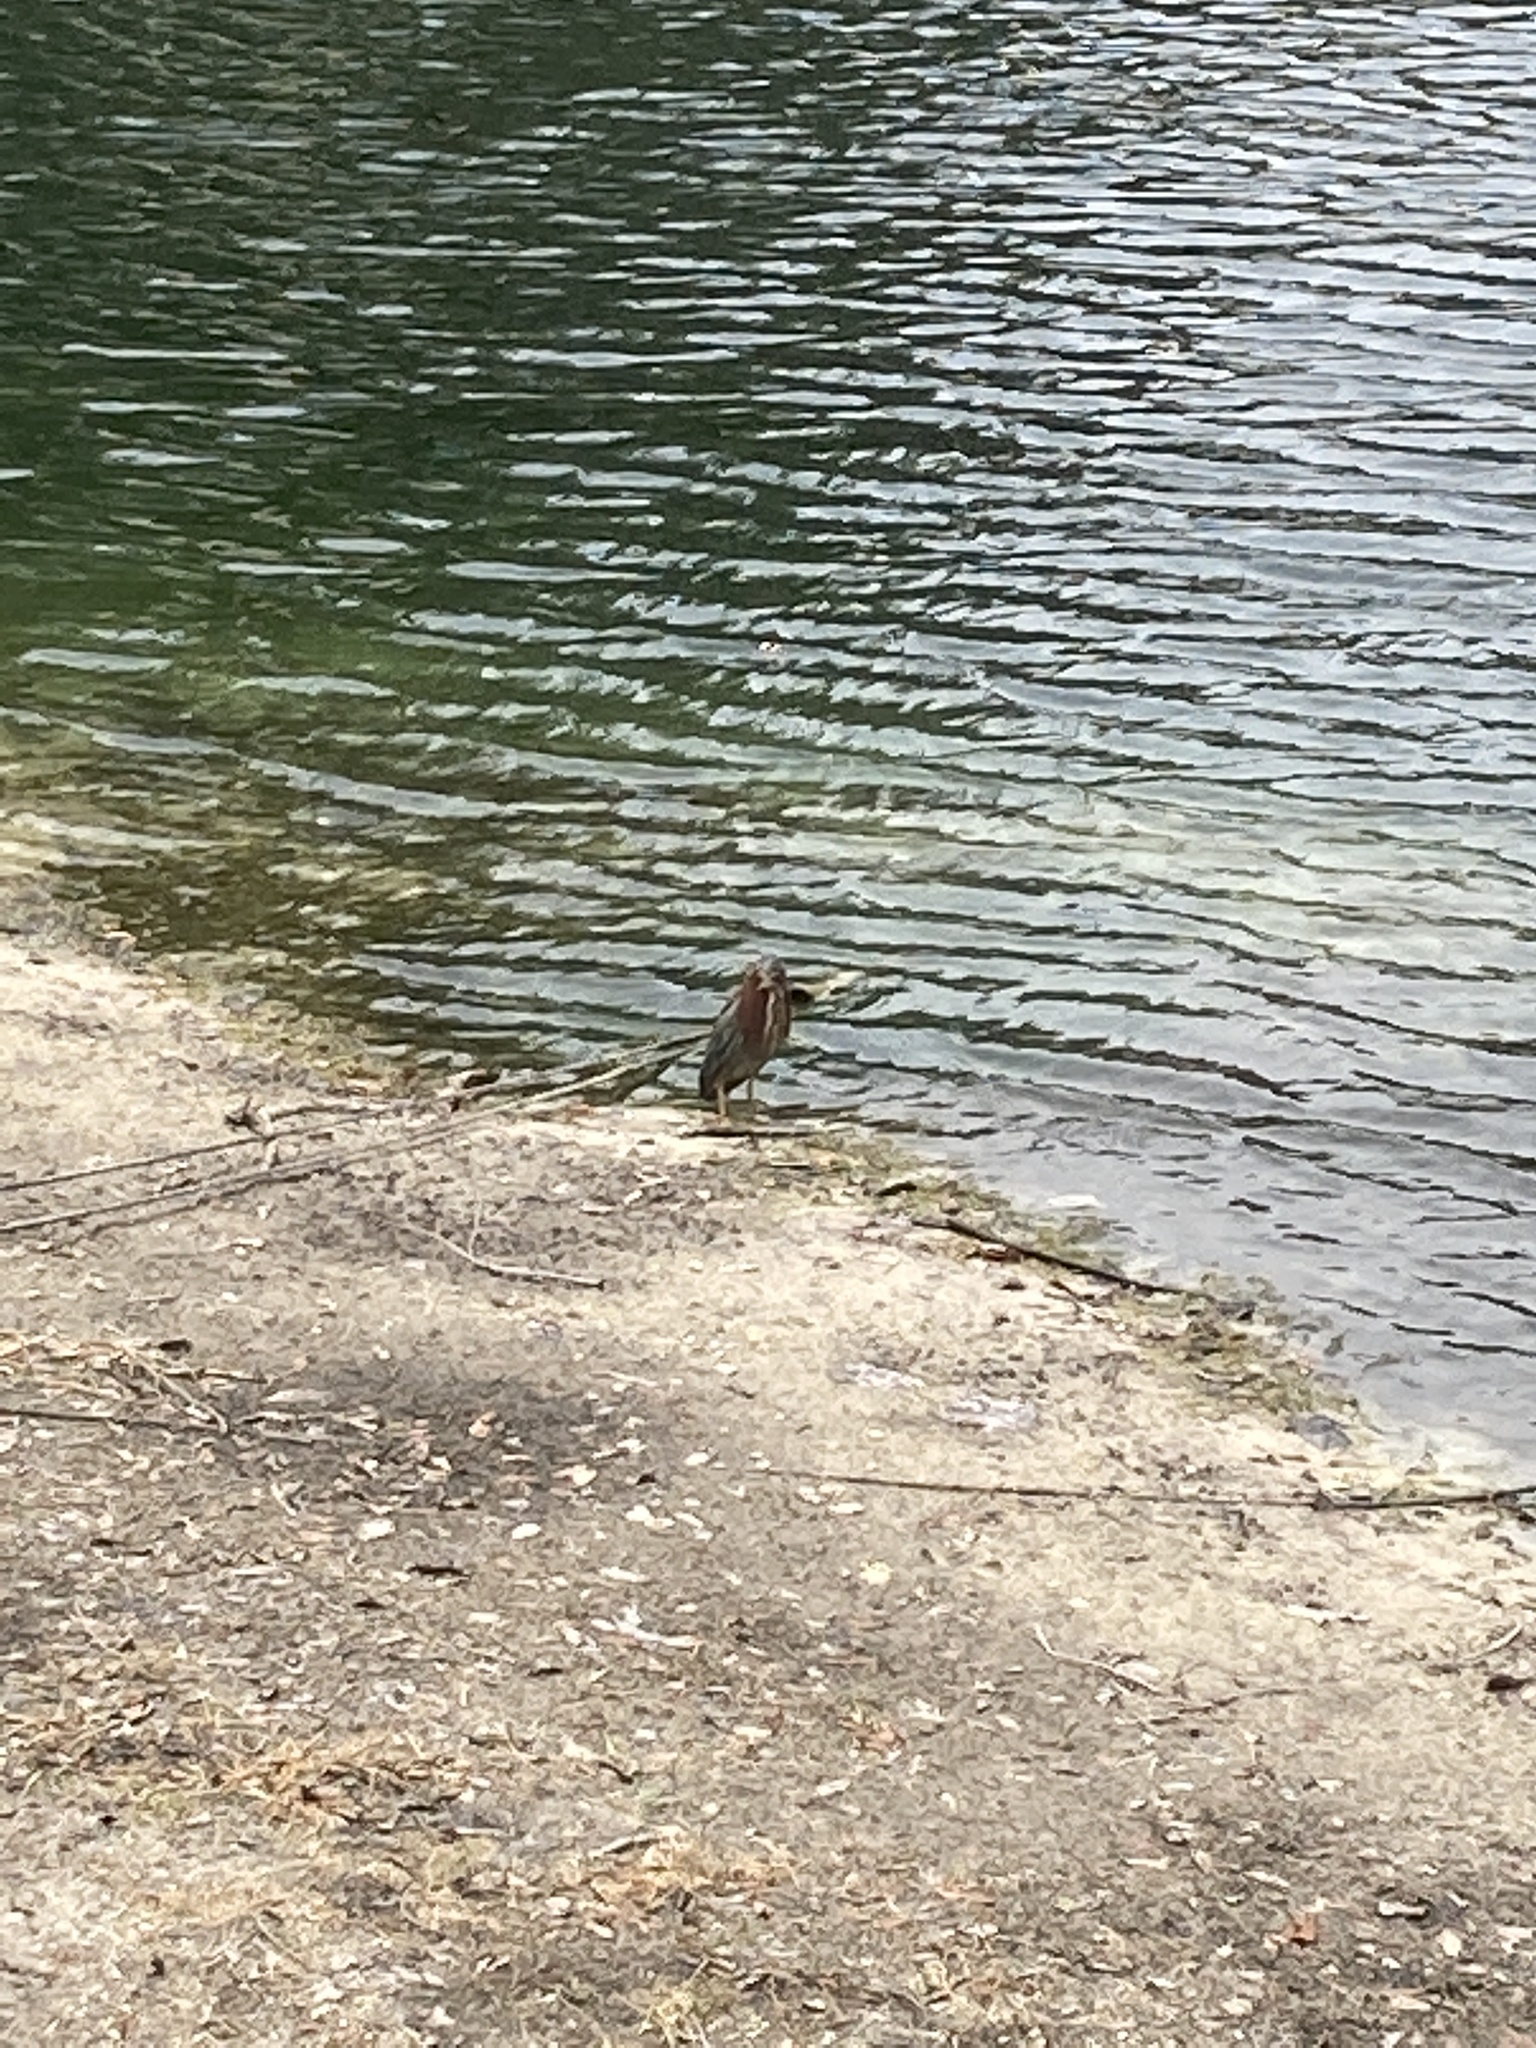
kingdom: Animalia
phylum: Chordata
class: Aves
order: Pelecaniformes
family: Ardeidae
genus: Butorides
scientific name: Butorides virescens
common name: Green heron
